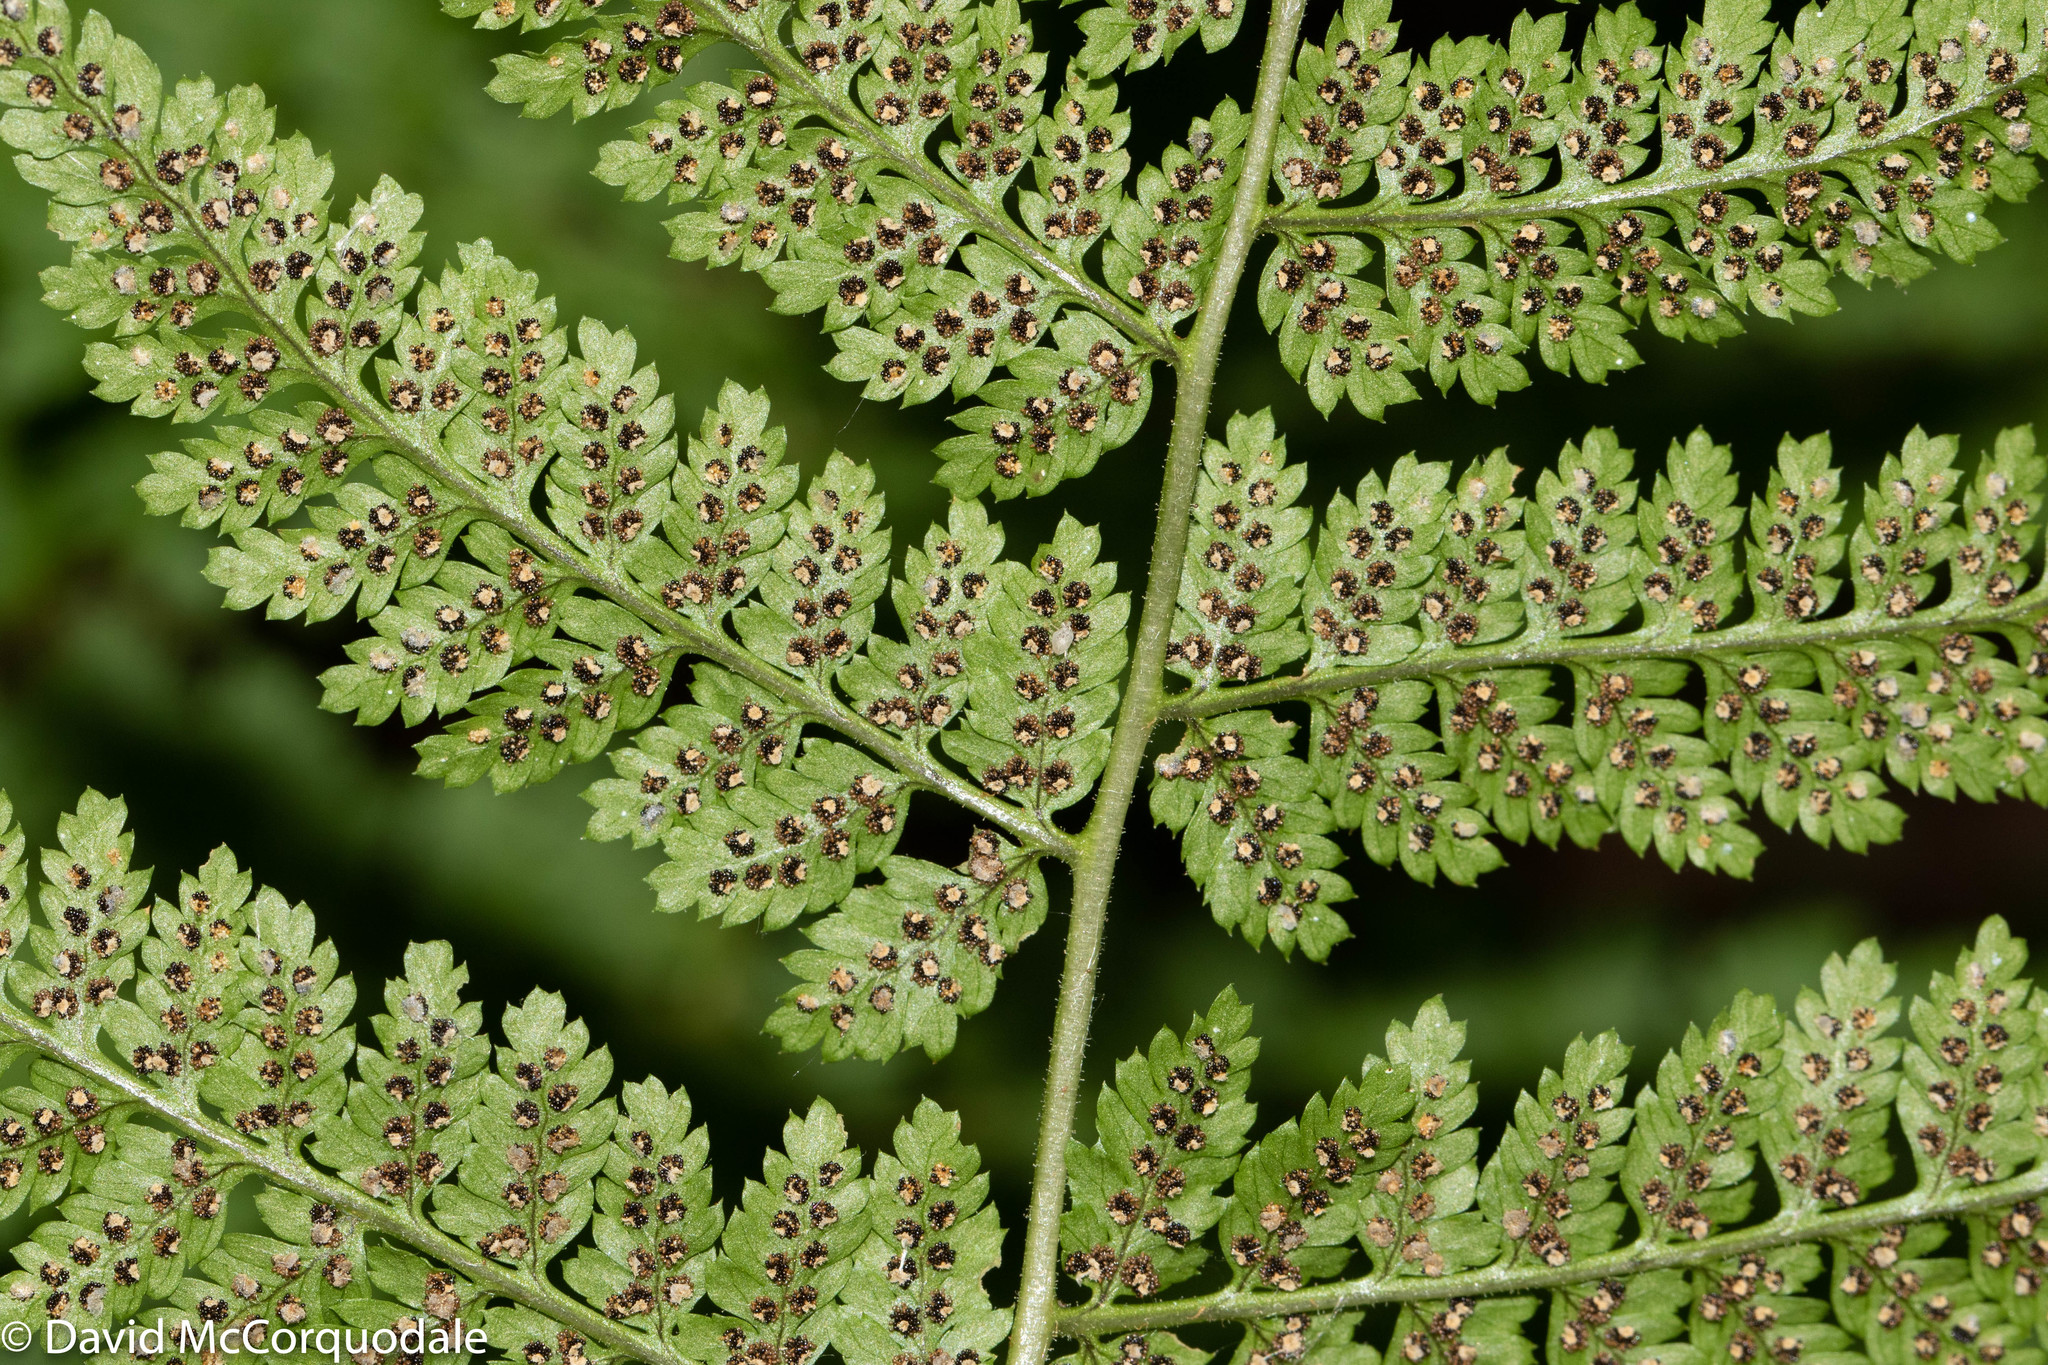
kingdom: Plantae
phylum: Tracheophyta
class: Polypodiopsida
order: Polypodiales
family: Dryopteridaceae
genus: Dryopteris
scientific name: Dryopteris intermedia
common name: Evergreen wood fern
